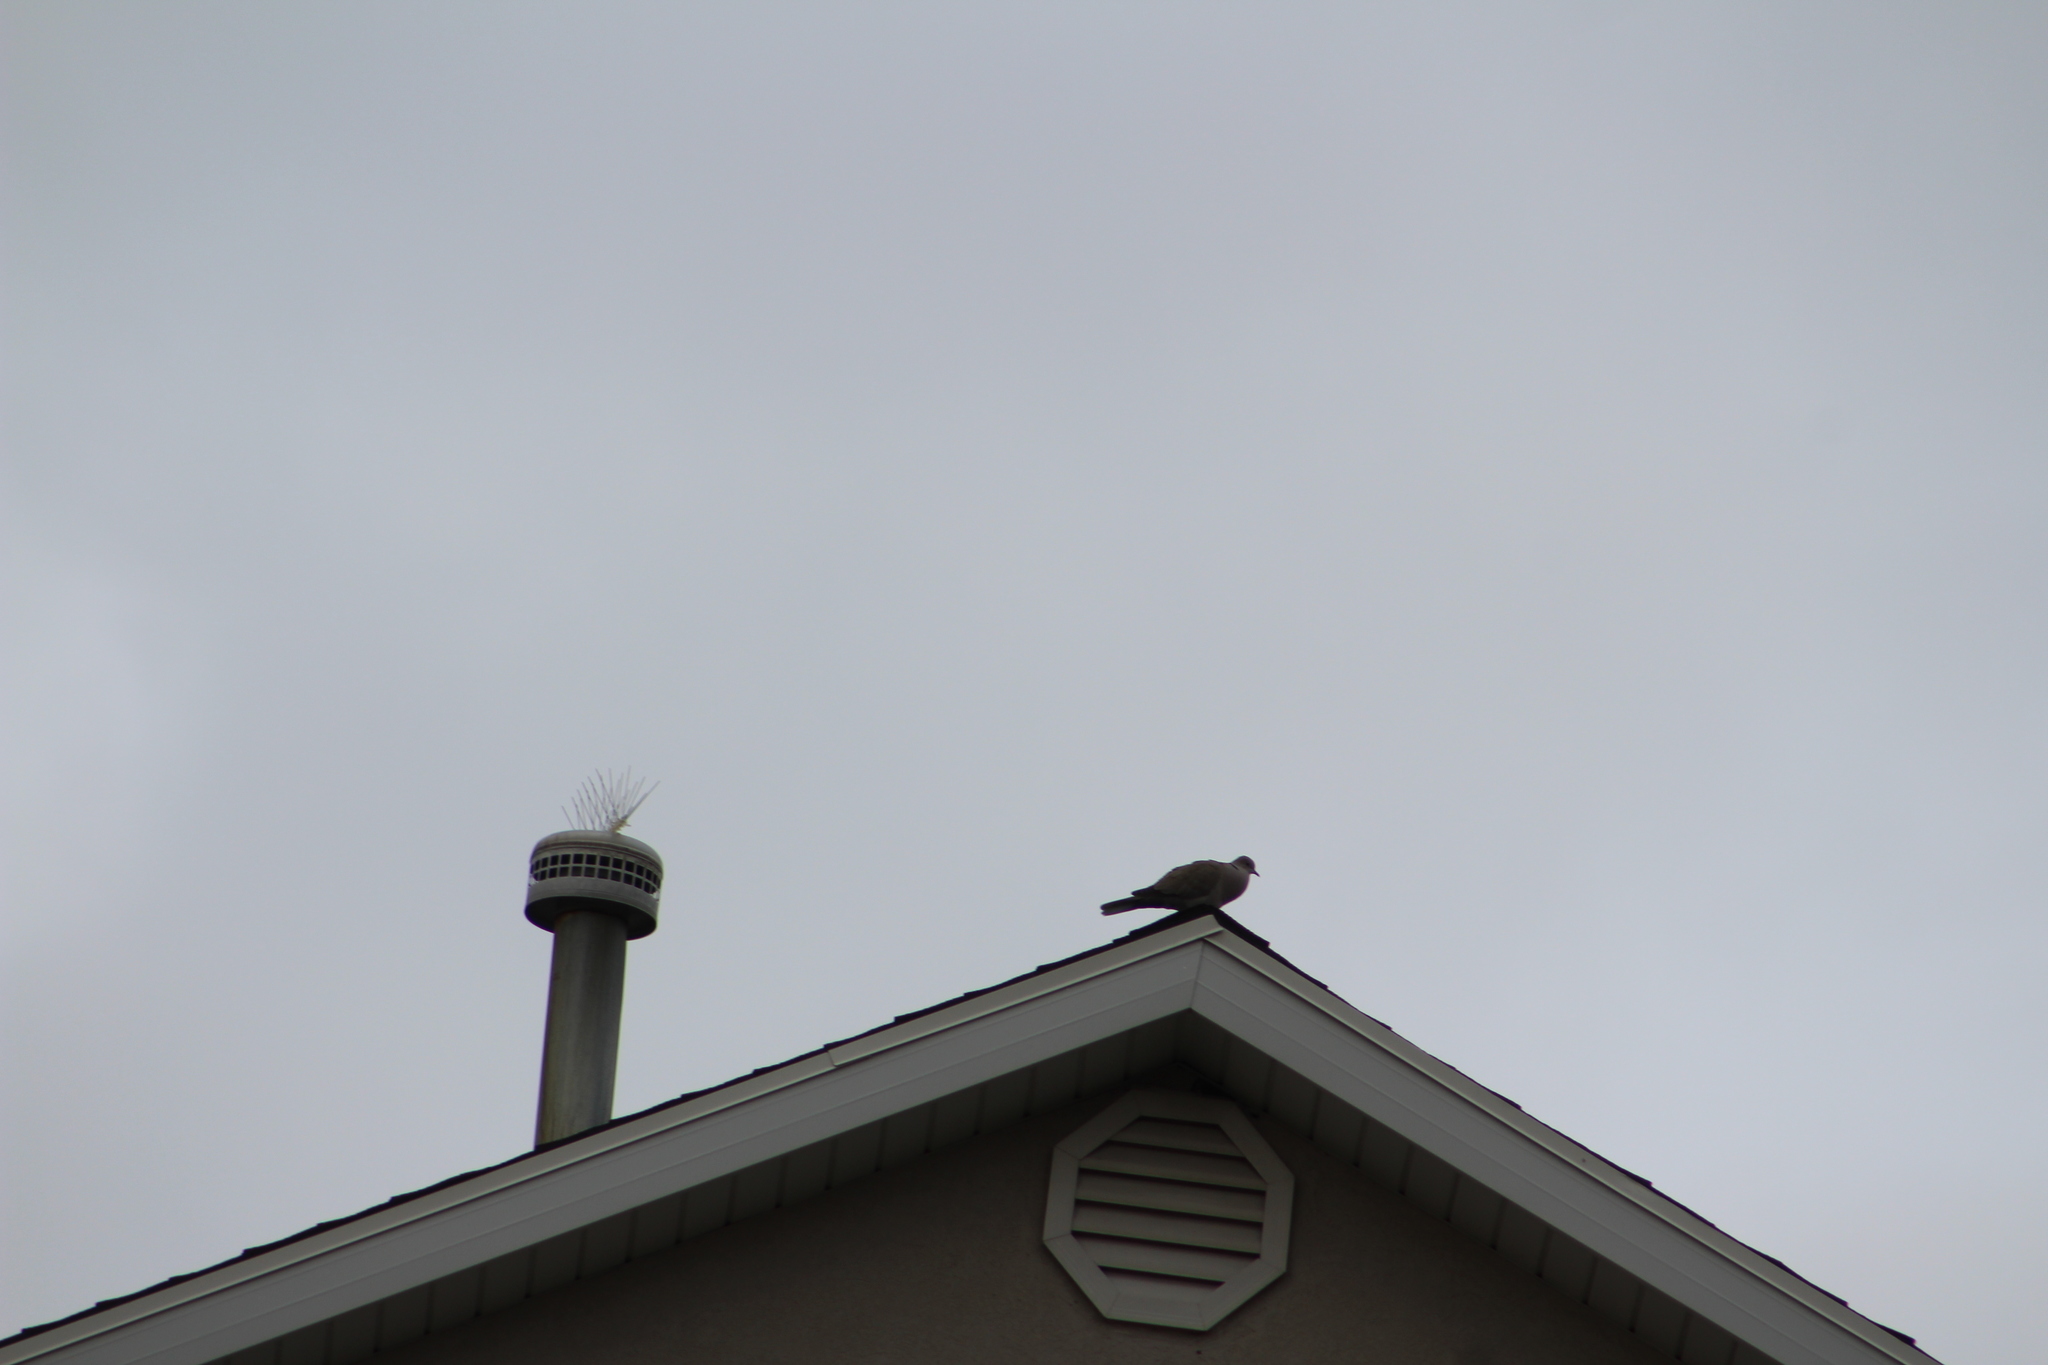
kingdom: Animalia
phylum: Chordata
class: Aves
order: Columbiformes
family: Columbidae
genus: Streptopelia
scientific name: Streptopelia decaocto
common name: Eurasian collared dove
